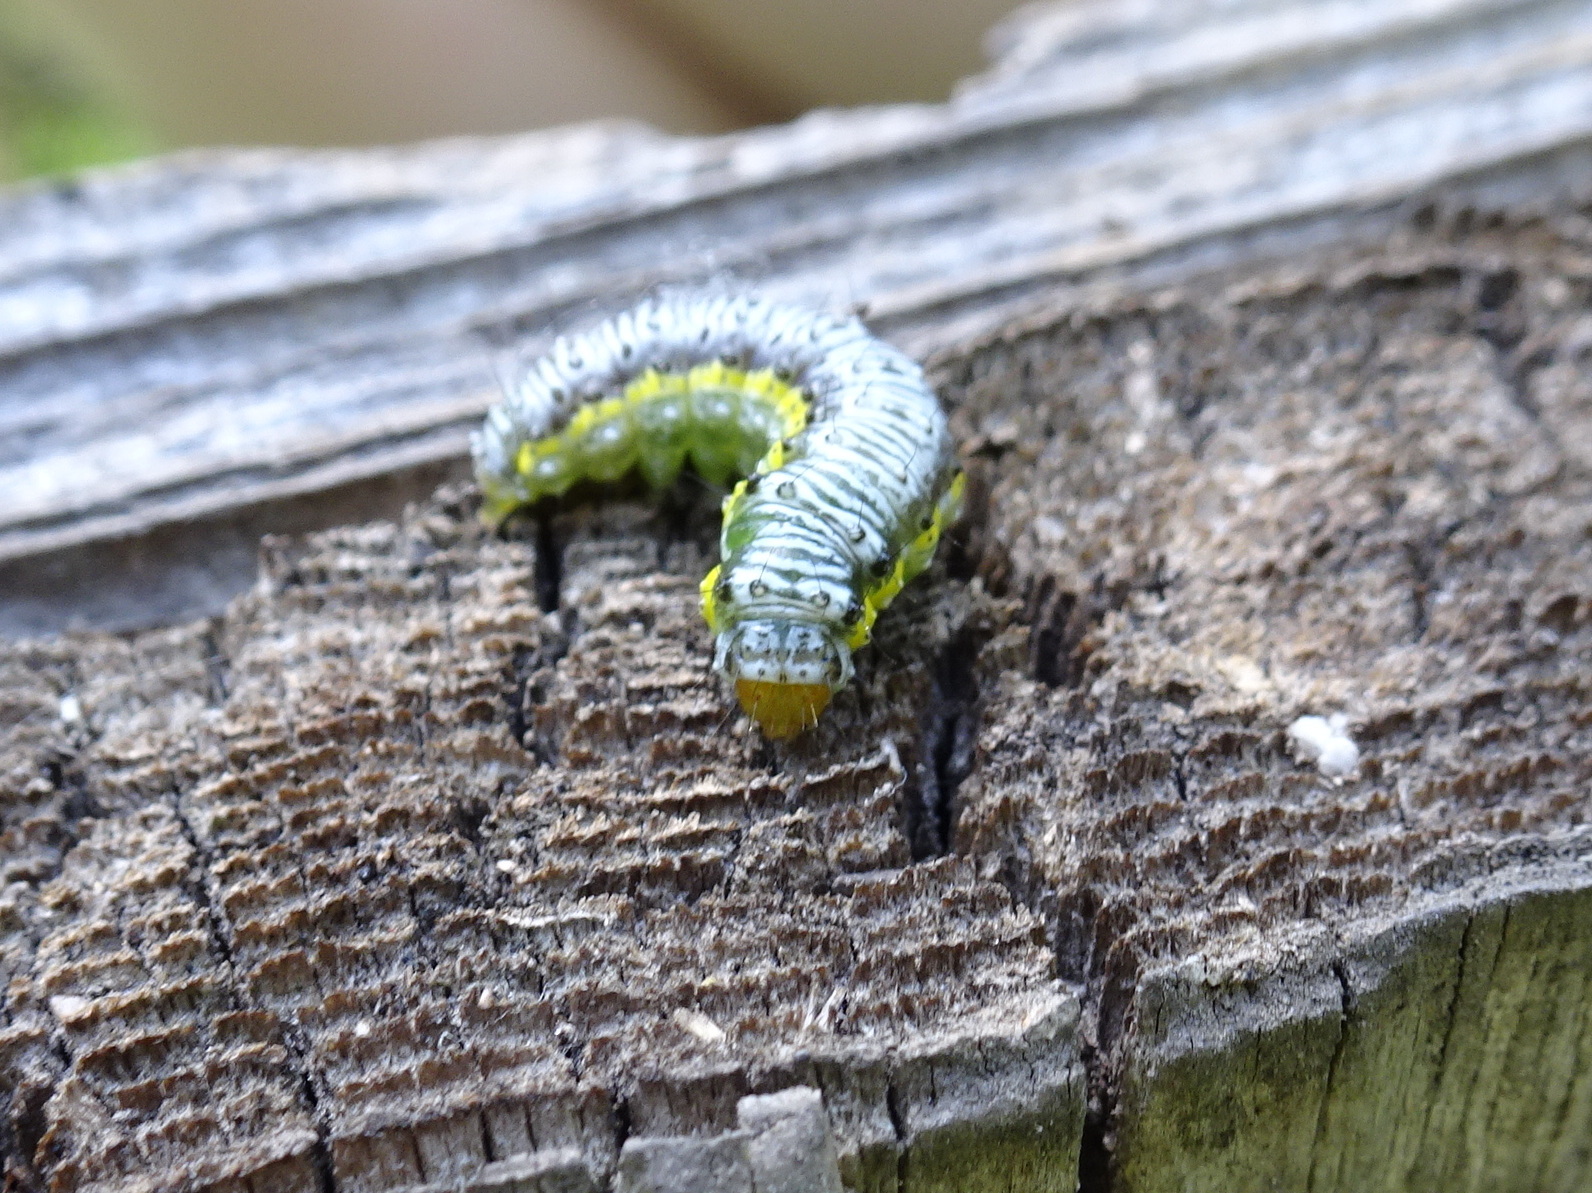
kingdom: Animalia
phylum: Arthropoda
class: Insecta
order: Lepidoptera
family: Crambidae
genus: Evergestis
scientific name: Evergestis rimosalis
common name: Cross-striped cabbageworm moth
